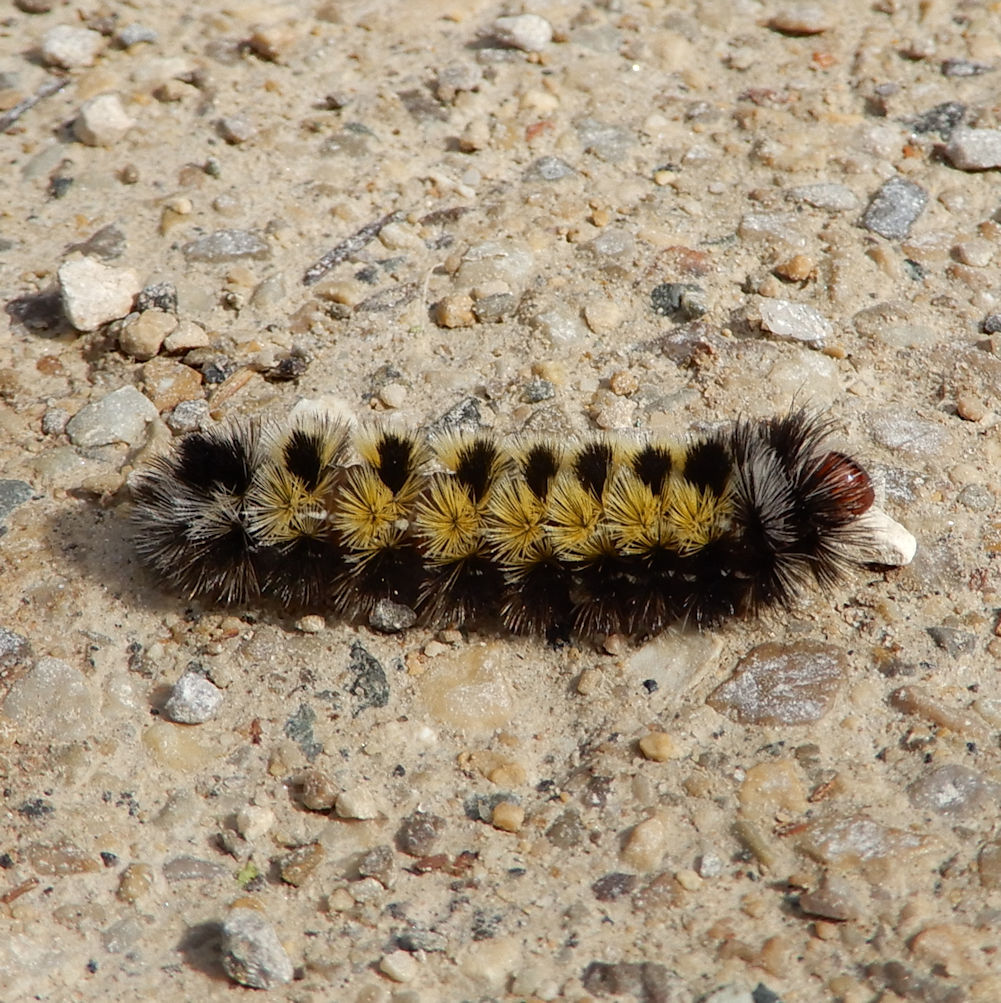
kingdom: Animalia
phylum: Arthropoda
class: Insecta
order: Lepidoptera
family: Erebidae
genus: Ctenucha
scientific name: Ctenucha virginica
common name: Virginia ctenucha moth
